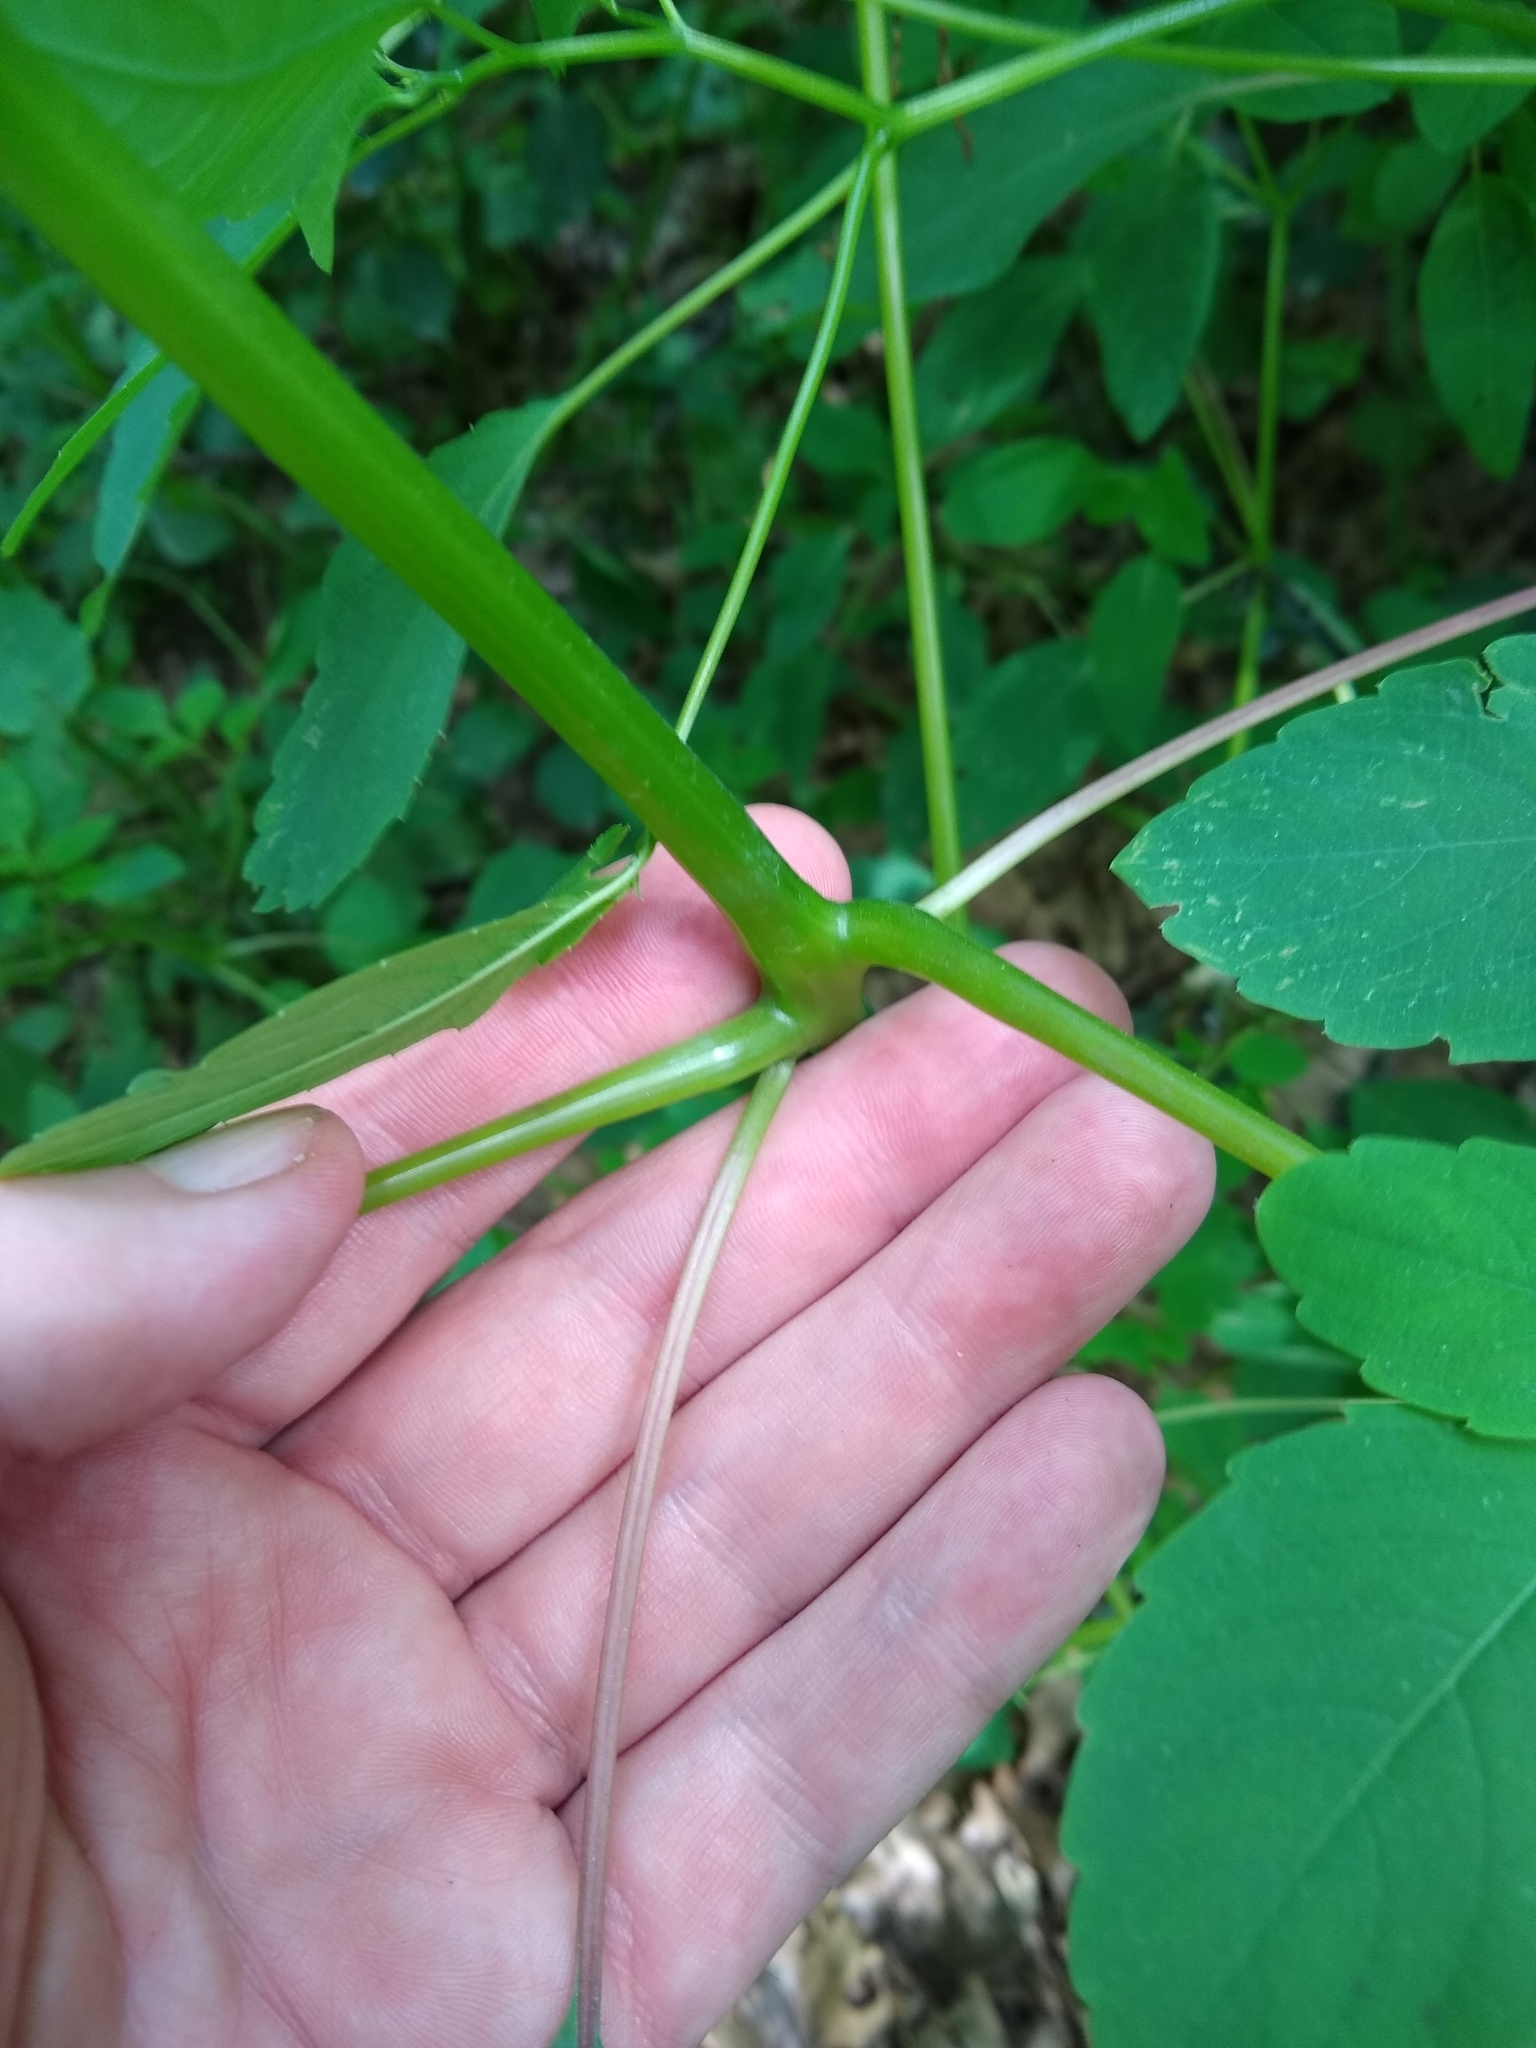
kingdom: Plantae
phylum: Tracheophyta
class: Magnoliopsida
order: Ericales
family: Balsaminaceae
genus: Impatiens
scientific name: Impatiens capensis
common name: Orange balsam
